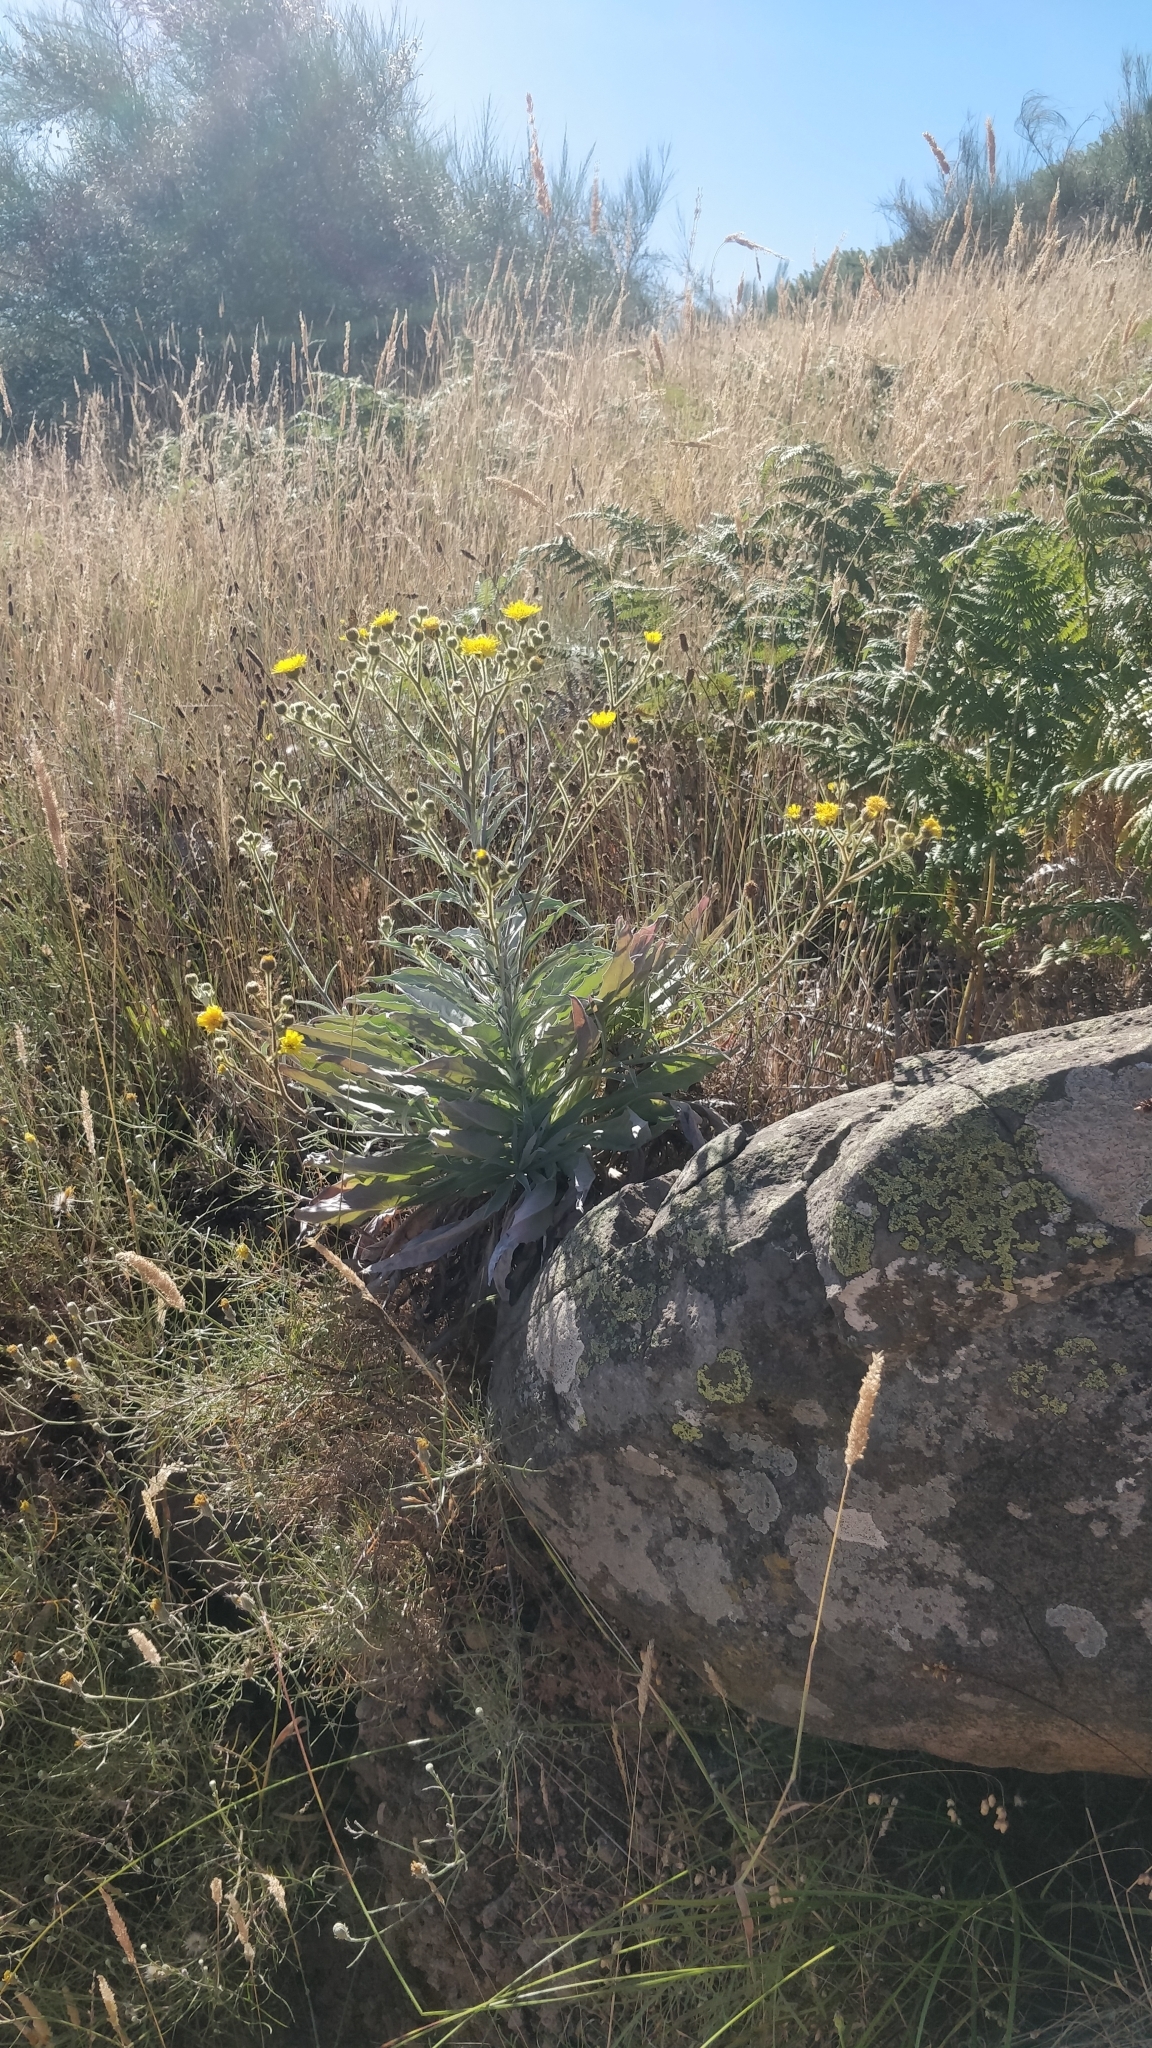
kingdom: Plantae
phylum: Tracheophyta
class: Magnoliopsida
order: Asterales
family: Asteraceae
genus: Andryala
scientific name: Andryala glandulosa
